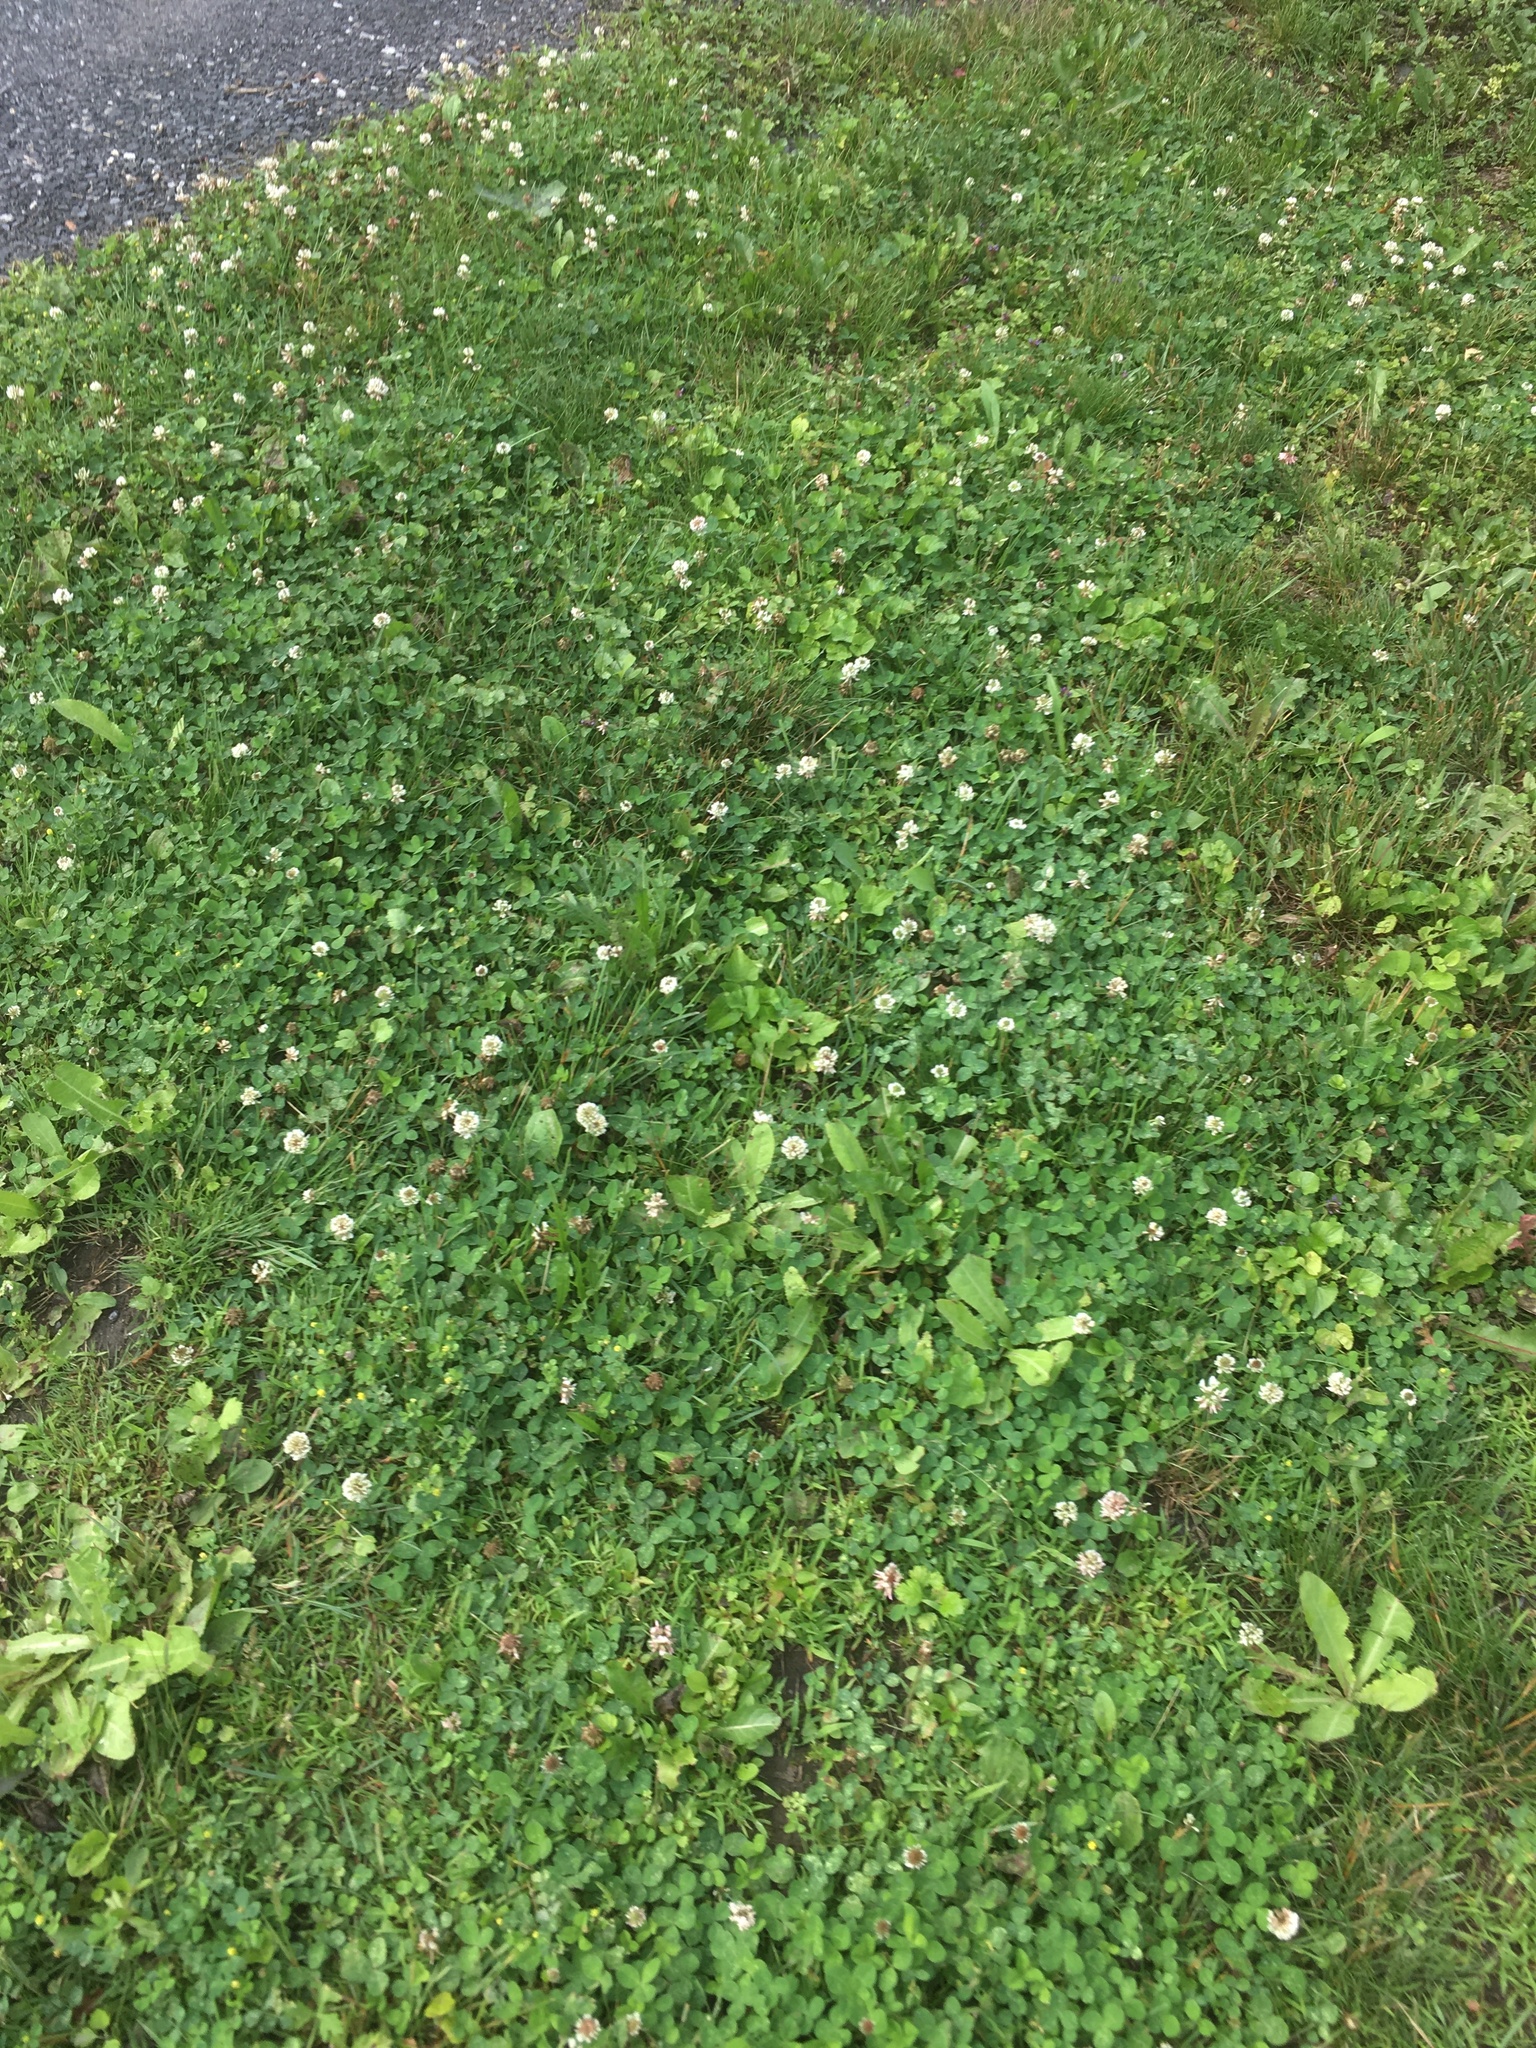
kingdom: Plantae
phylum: Tracheophyta
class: Magnoliopsida
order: Fabales
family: Fabaceae
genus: Trifolium
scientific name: Trifolium repens
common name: White clover
